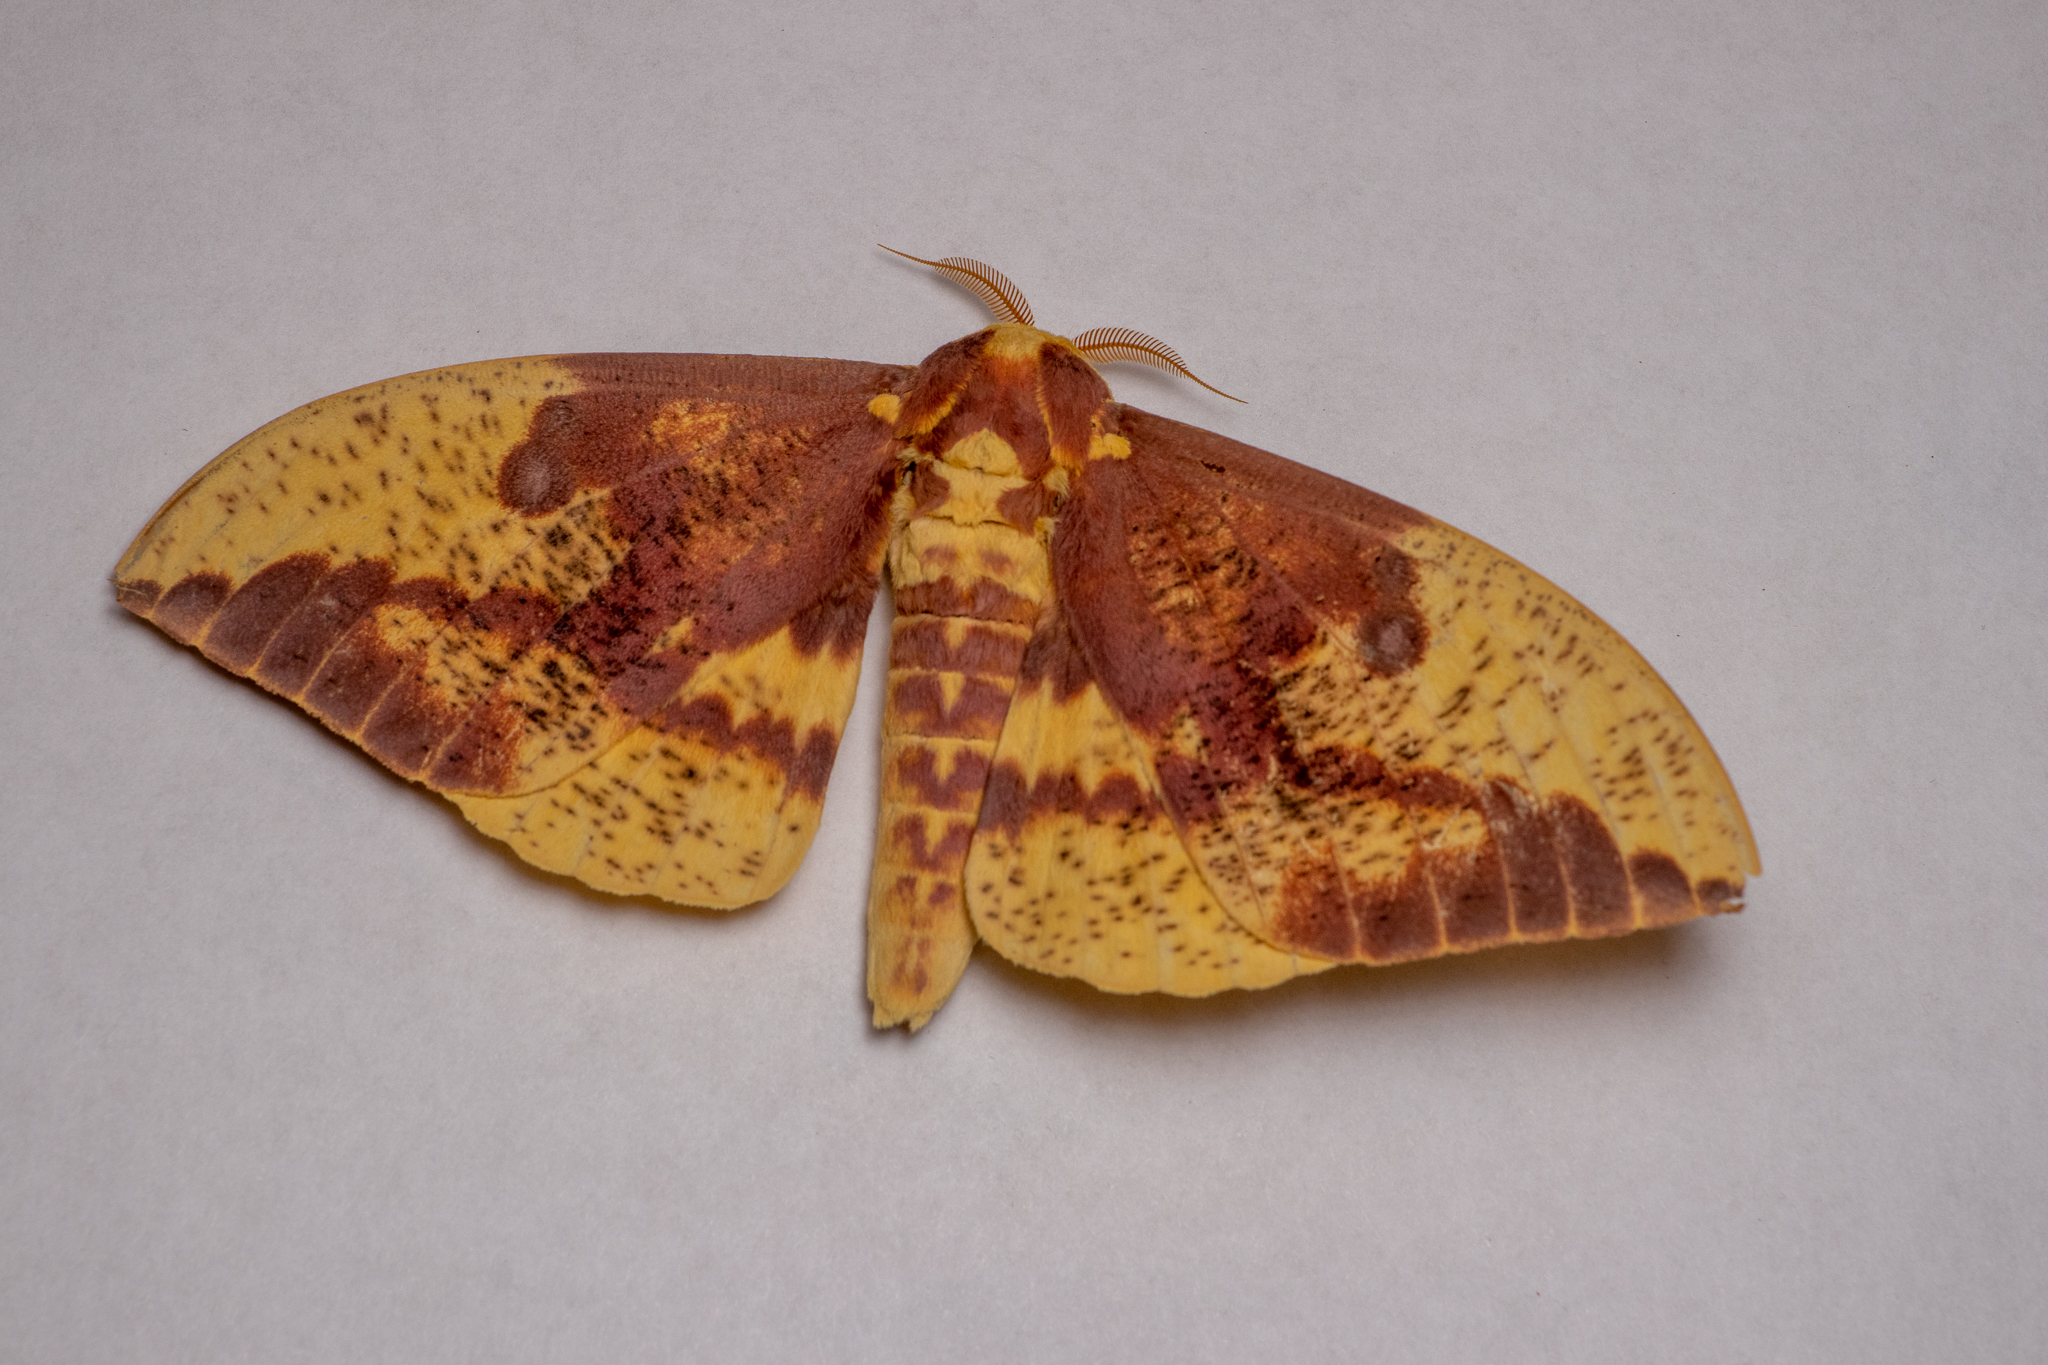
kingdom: Animalia
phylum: Arthropoda
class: Insecta
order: Lepidoptera
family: Saturniidae
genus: Eacles
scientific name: Eacles imperialis
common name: Imperial moth
